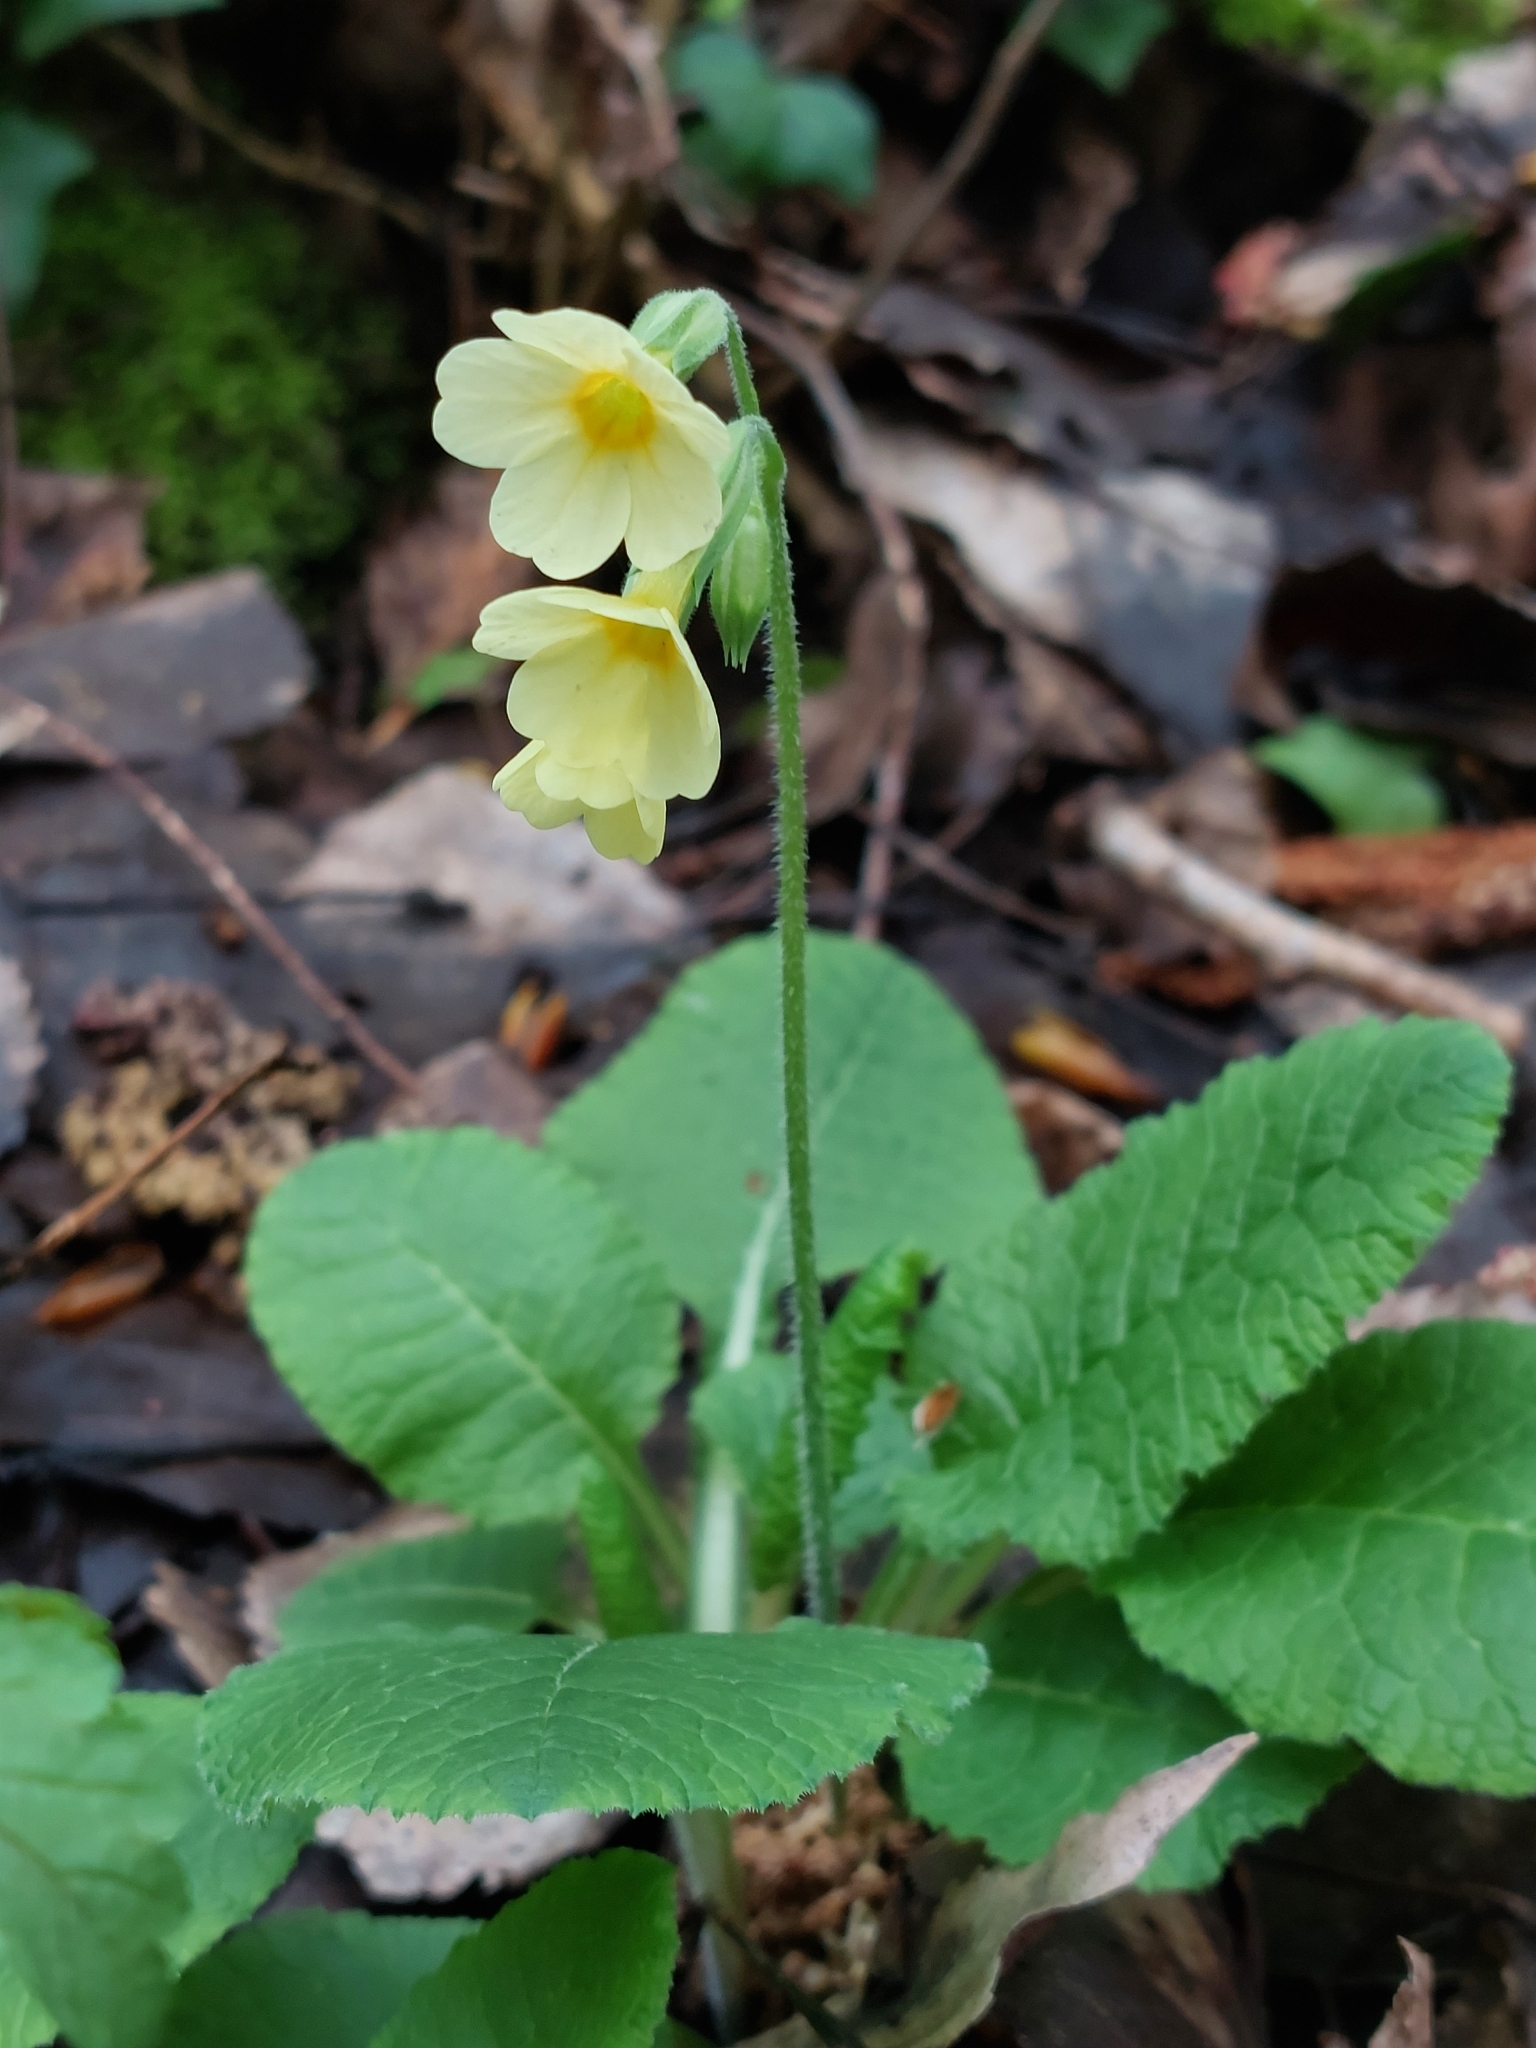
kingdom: Plantae
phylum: Tracheophyta
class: Magnoliopsida
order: Ericales
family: Primulaceae
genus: Primula
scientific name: Primula elatior
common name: Oxlip
